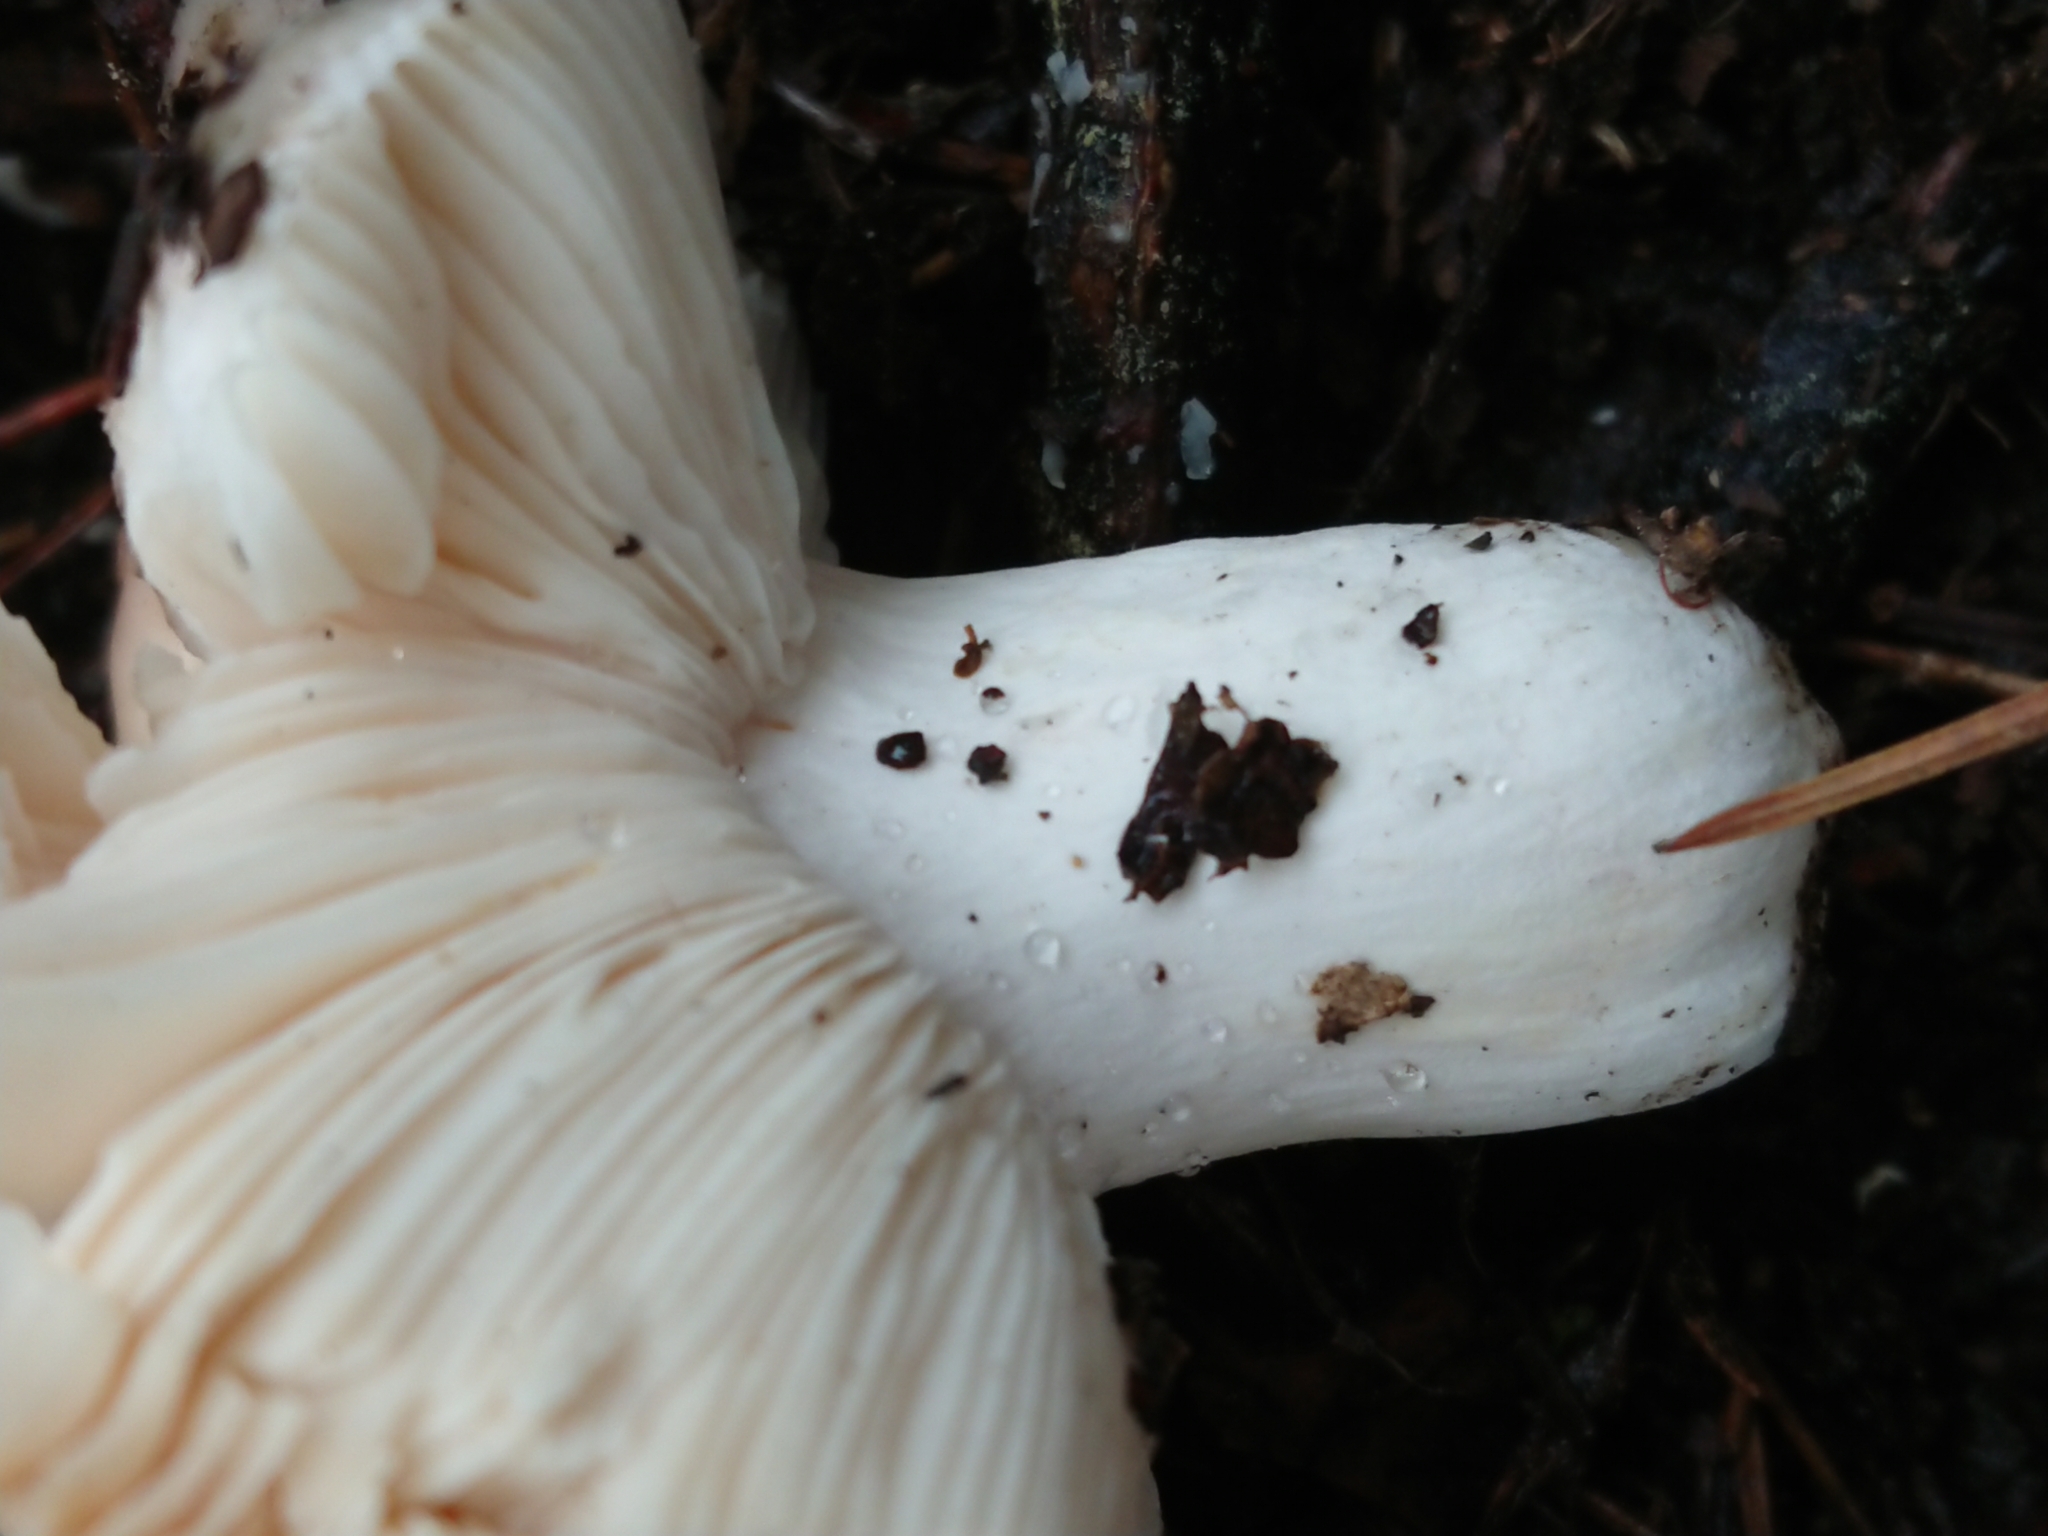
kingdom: Fungi
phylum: Basidiomycota
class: Agaricomycetes
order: Russulales
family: Russulaceae
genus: Russula
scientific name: Russula grisea
